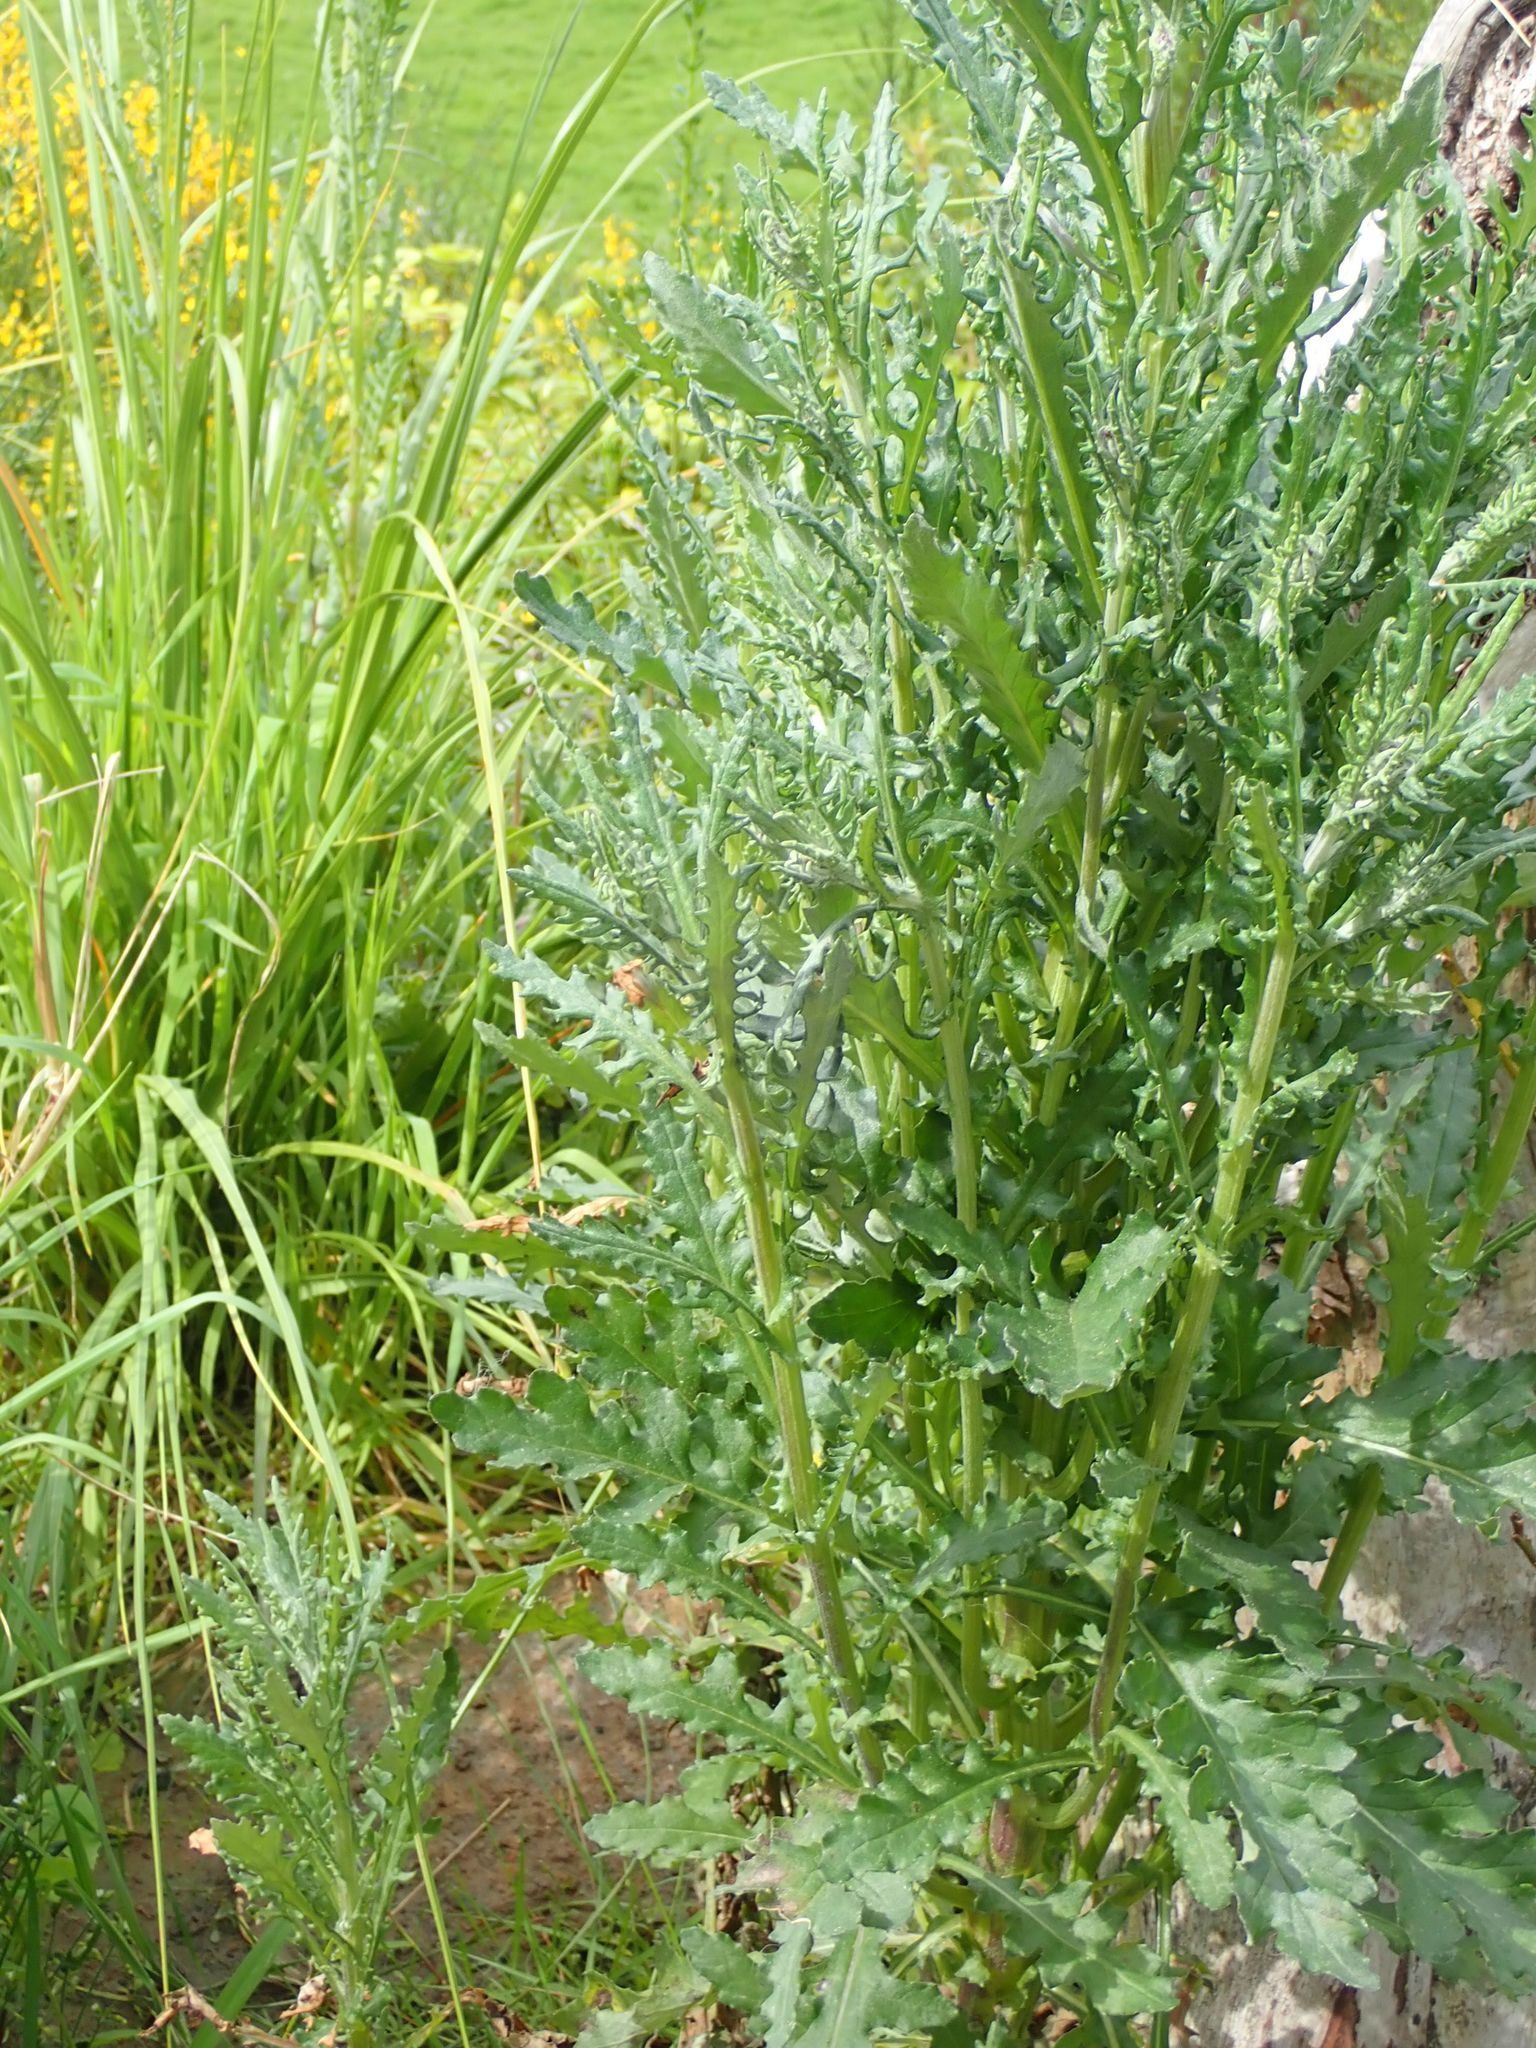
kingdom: Plantae
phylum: Tracheophyta
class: Magnoliopsida
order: Asterales
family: Asteraceae
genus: Senecio
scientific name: Senecio glomeratus
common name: Cutleaf burnweed
